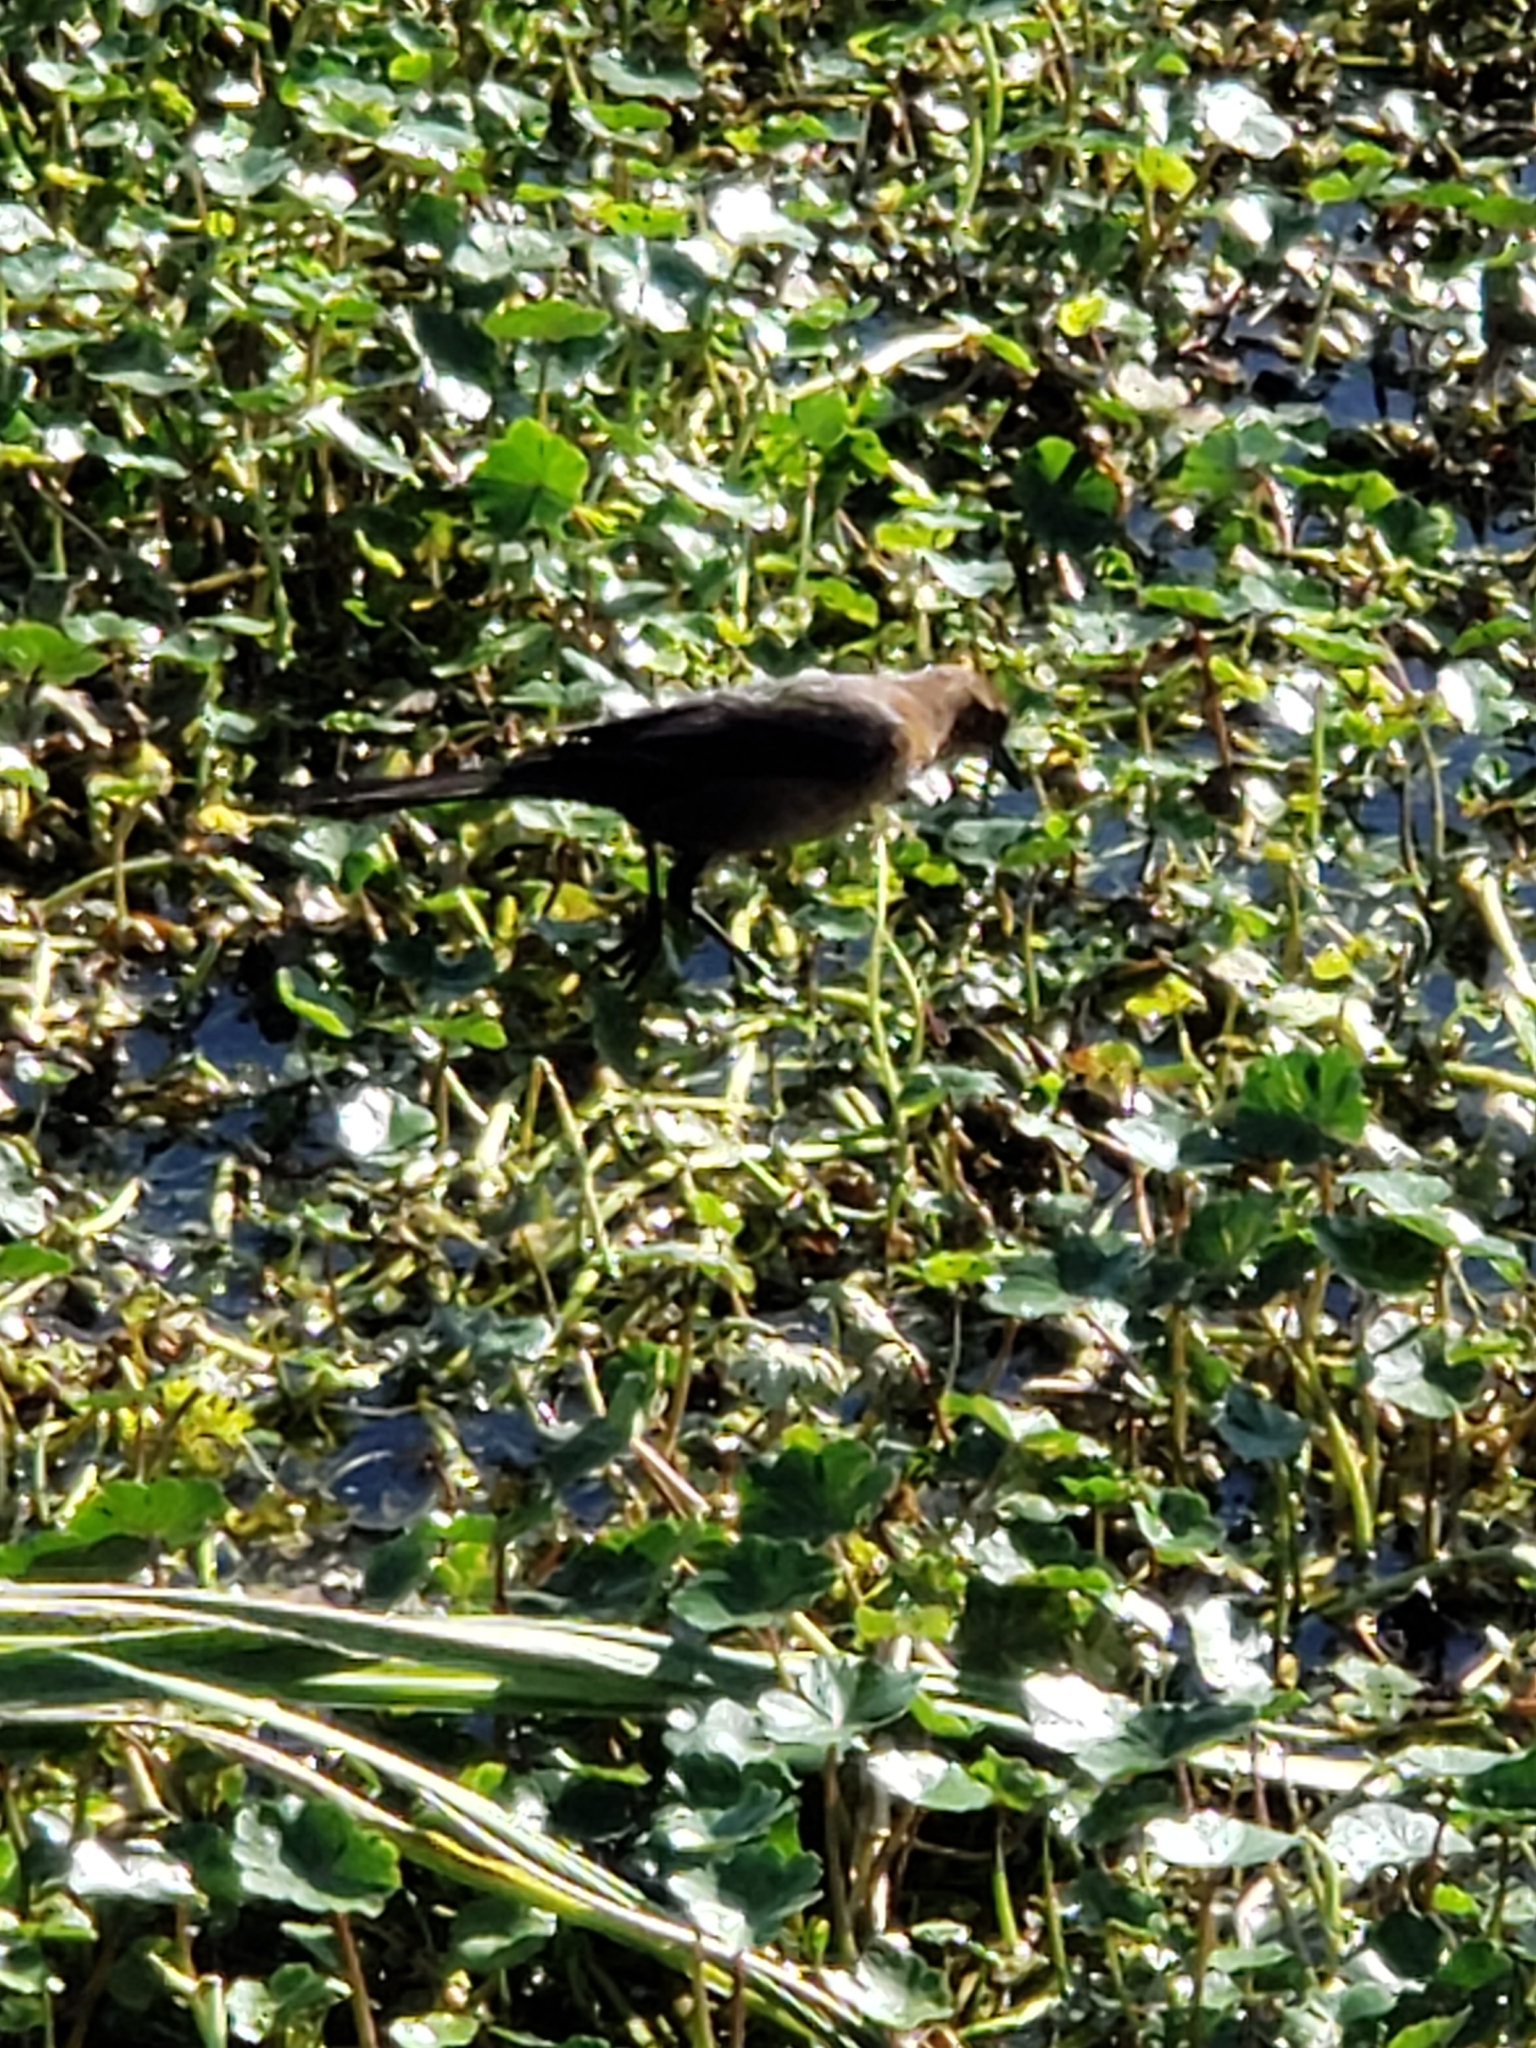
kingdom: Animalia
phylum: Chordata
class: Aves
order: Passeriformes
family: Icteridae
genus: Quiscalus
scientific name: Quiscalus major
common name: Boat-tailed grackle
